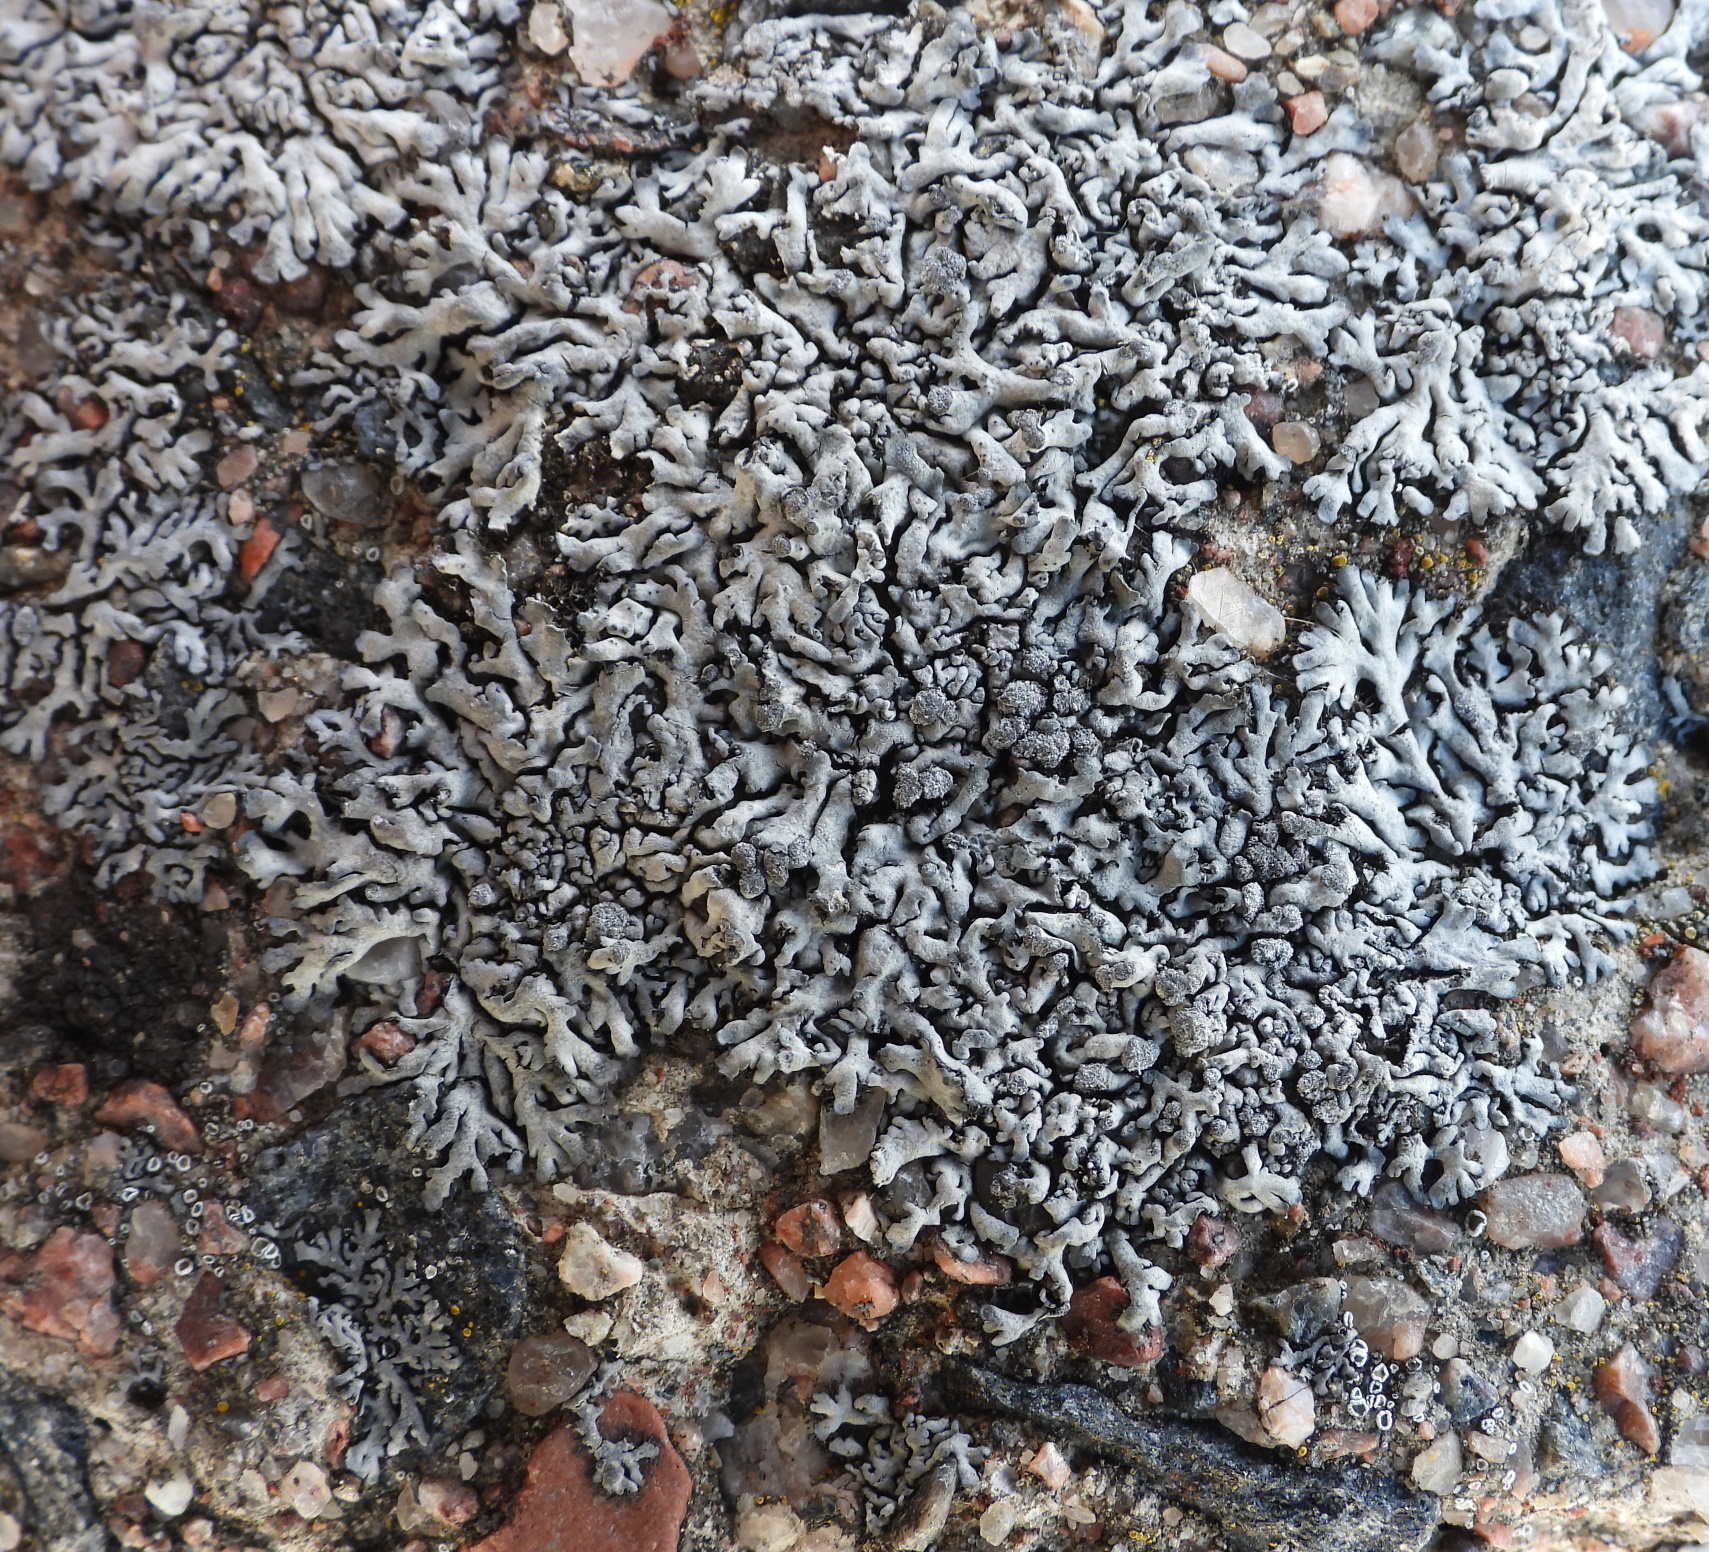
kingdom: Fungi
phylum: Ascomycota
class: Lecanoromycetes
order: Caliciales
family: Physciaceae
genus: Physcia
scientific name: Physcia caesia
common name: Blue-gray rosette lichen
